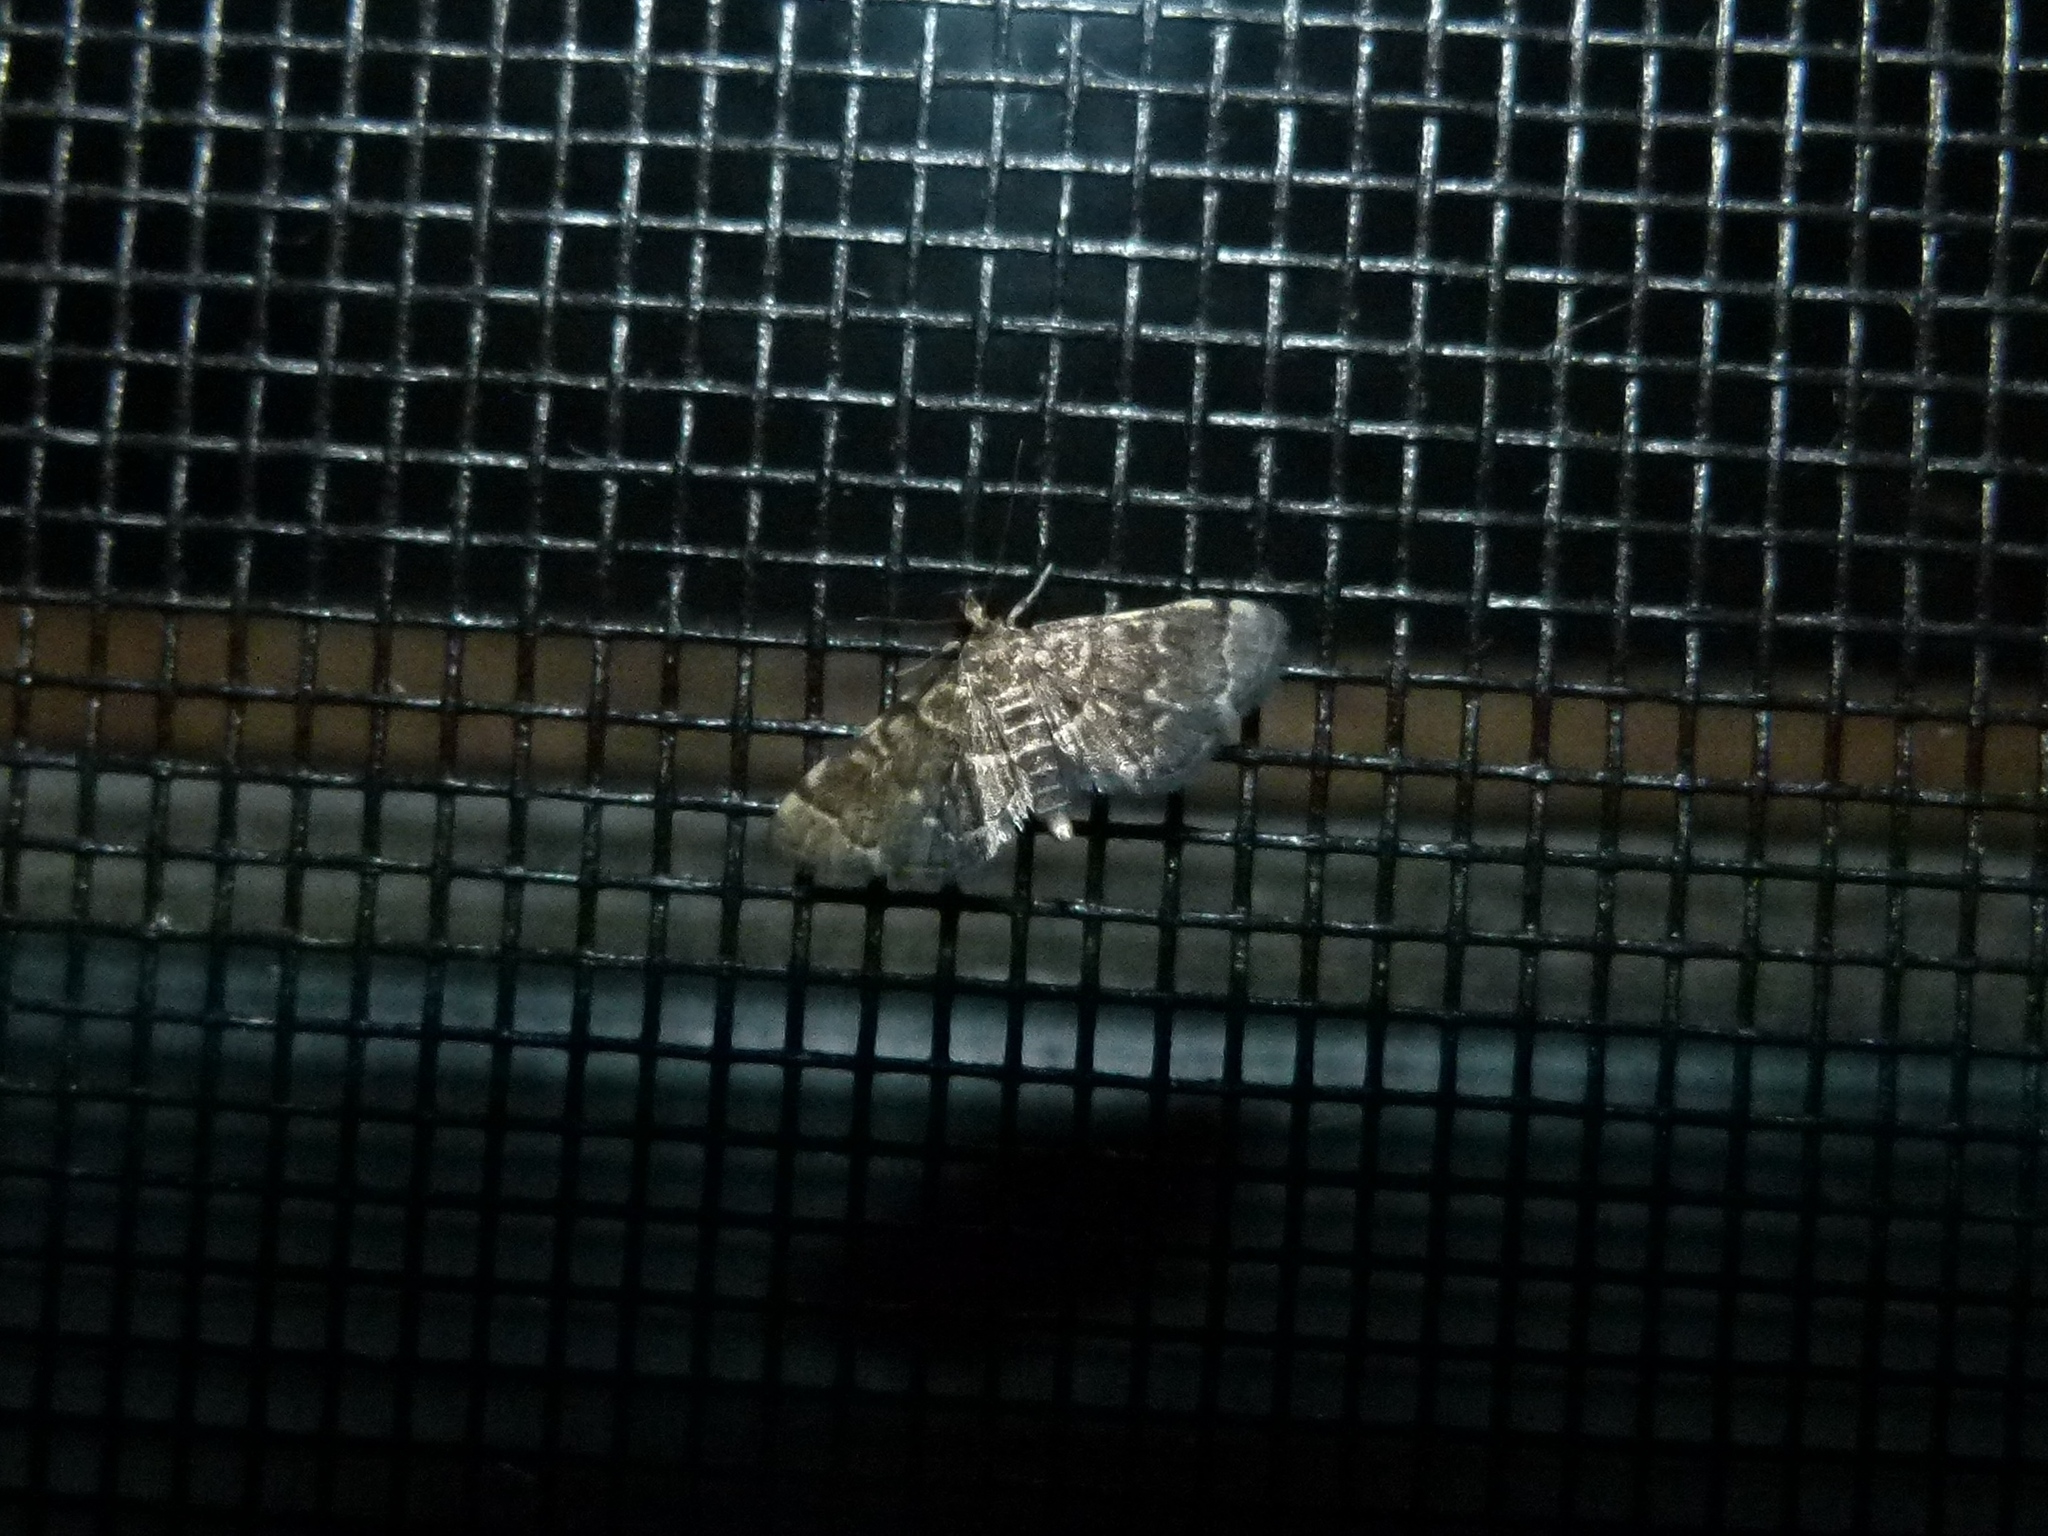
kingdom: Animalia
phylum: Arthropoda
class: Insecta
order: Lepidoptera
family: Crambidae
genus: Anageshna
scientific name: Anageshna primordialis
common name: Yellow-spotted webworm moth
